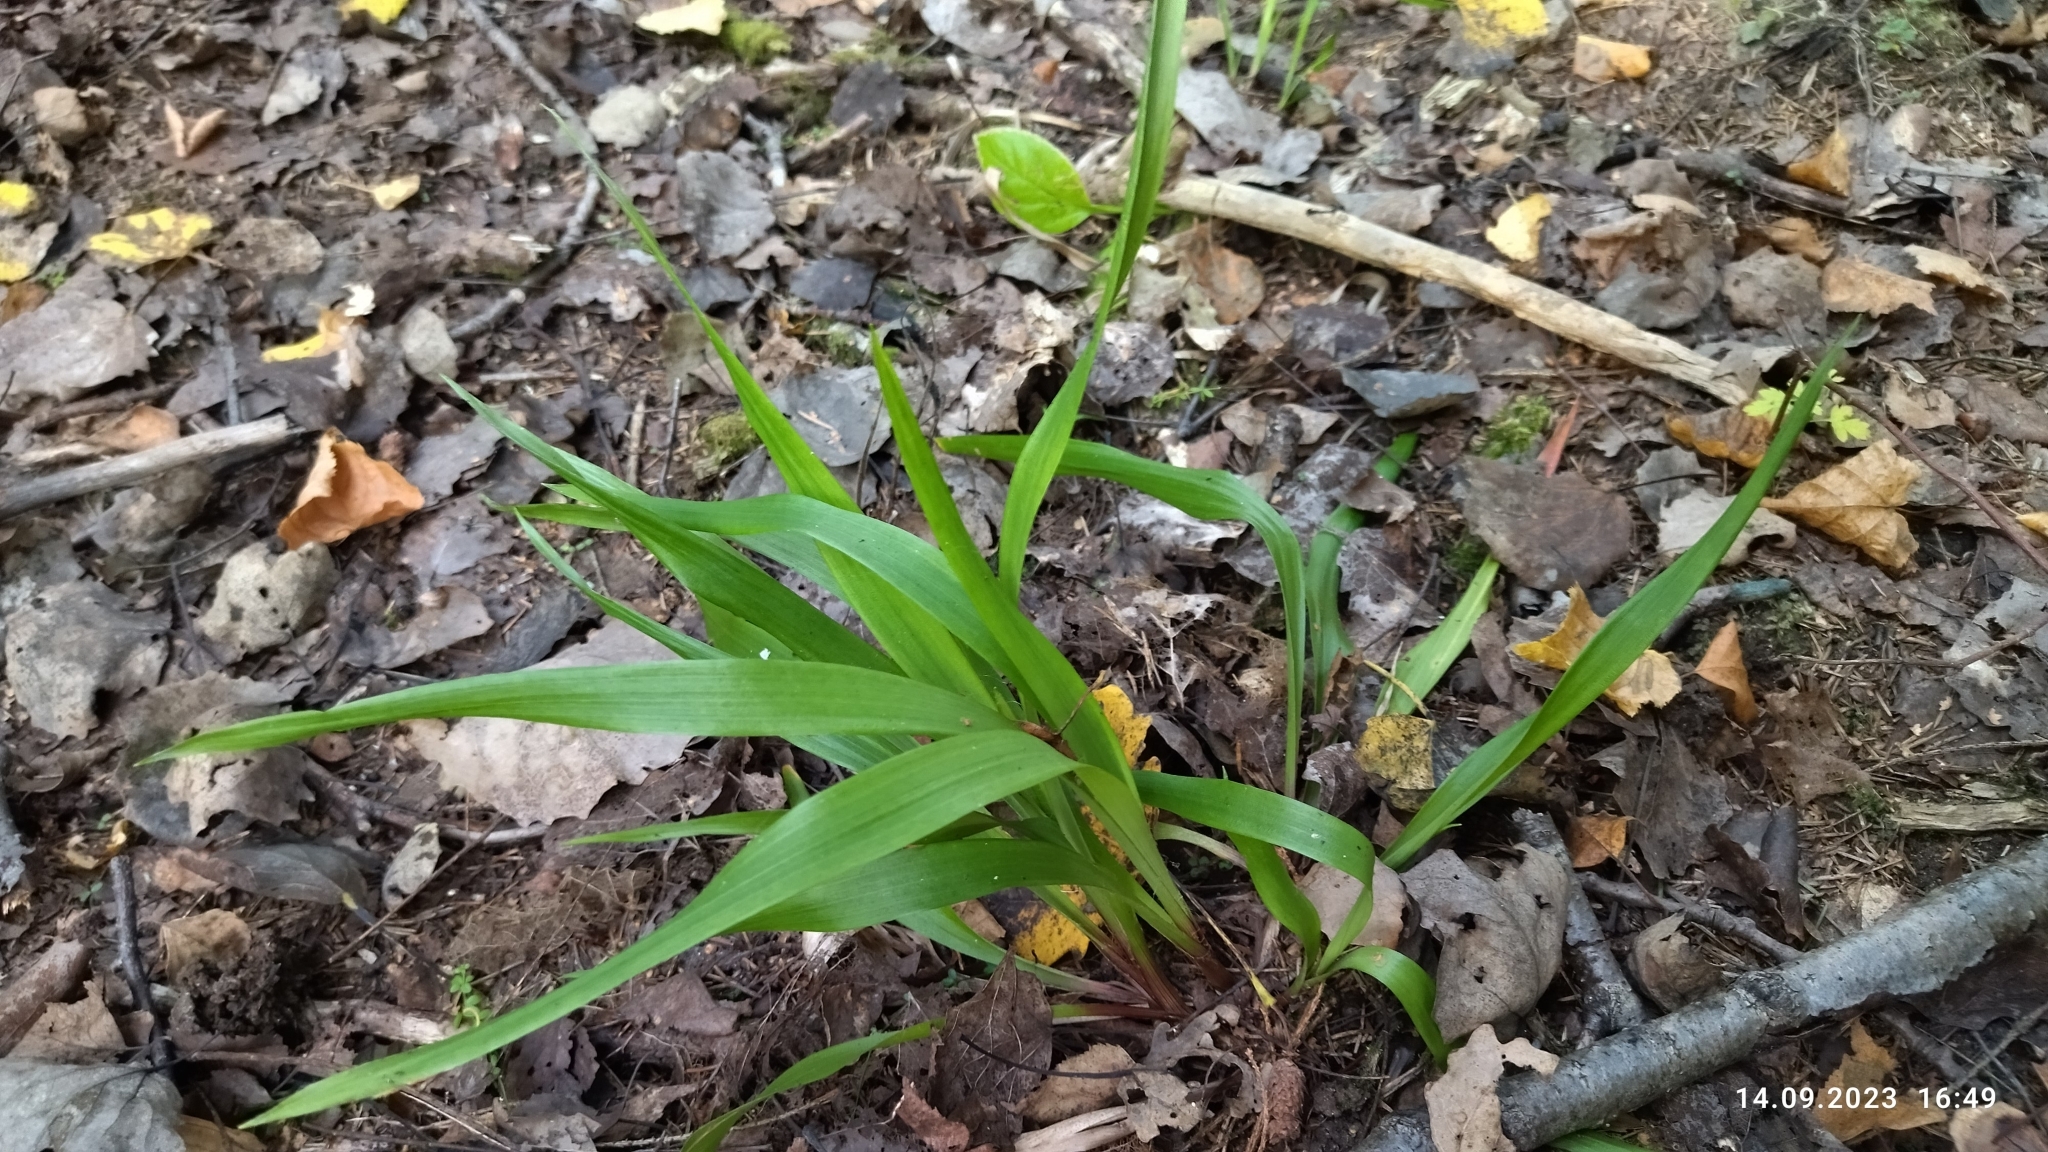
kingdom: Plantae
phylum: Tracheophyta
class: Liliopsida
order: Poales
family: Juncaceae
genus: Luzula
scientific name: Luzula pilosa
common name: Hairy wood-rush
